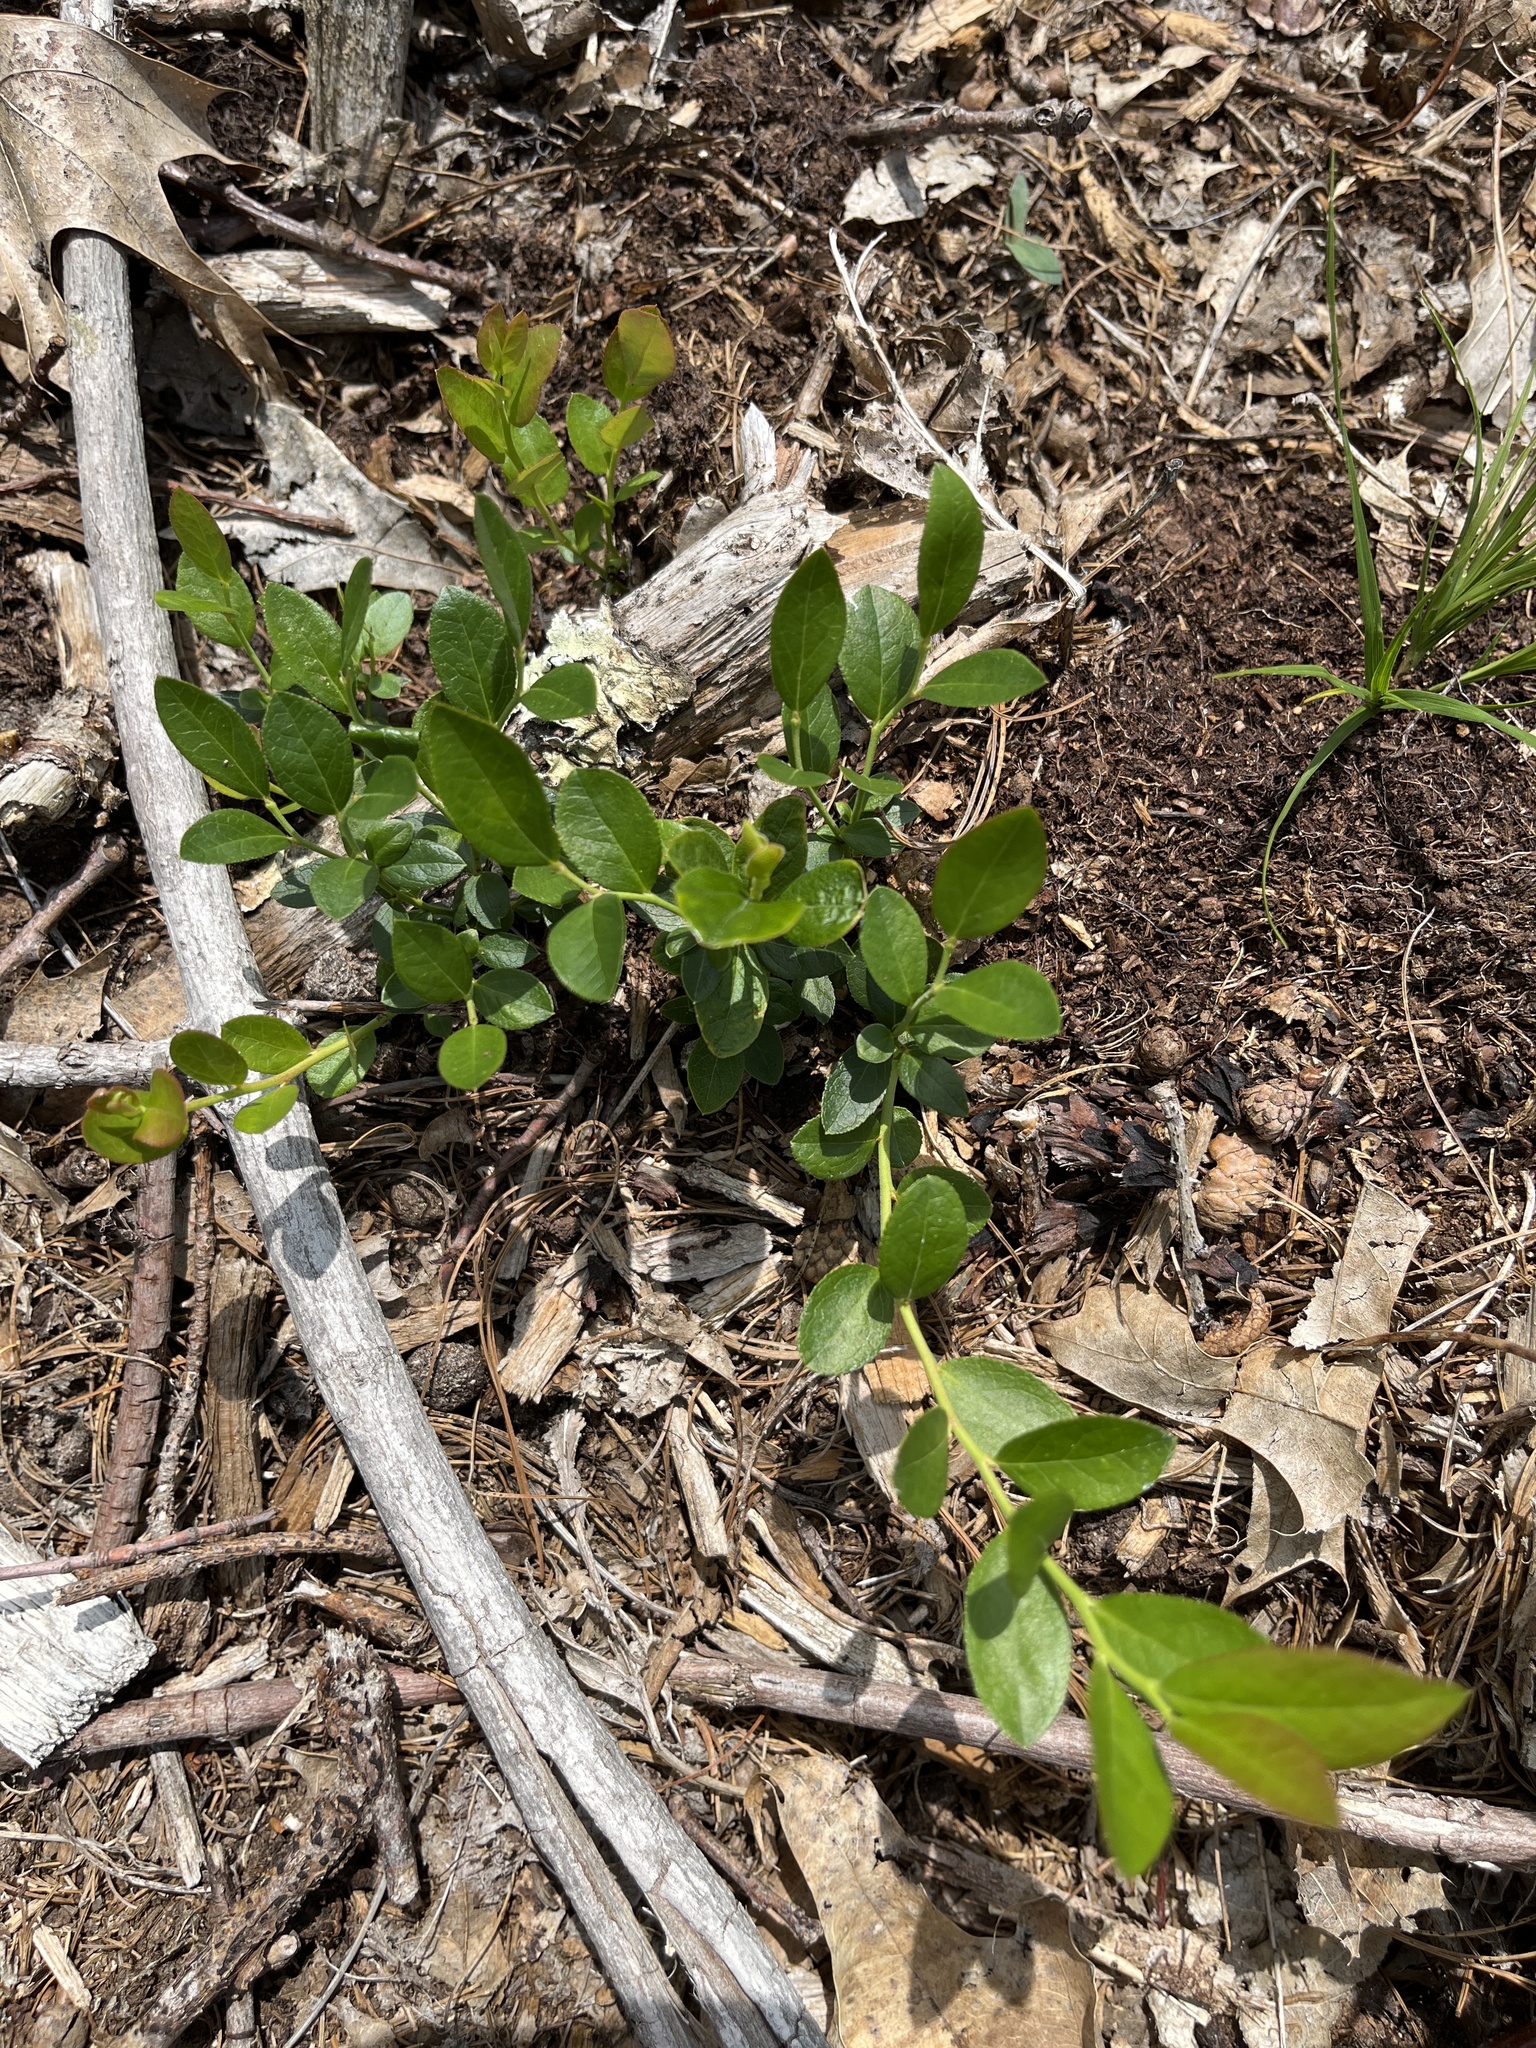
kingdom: Plantae
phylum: Tracheophyta
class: Magnoliopsida
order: Ericales
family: Ericaceae
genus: Vaccinium
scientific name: Vaccinium angustifolium
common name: Early lowbush blueberry
